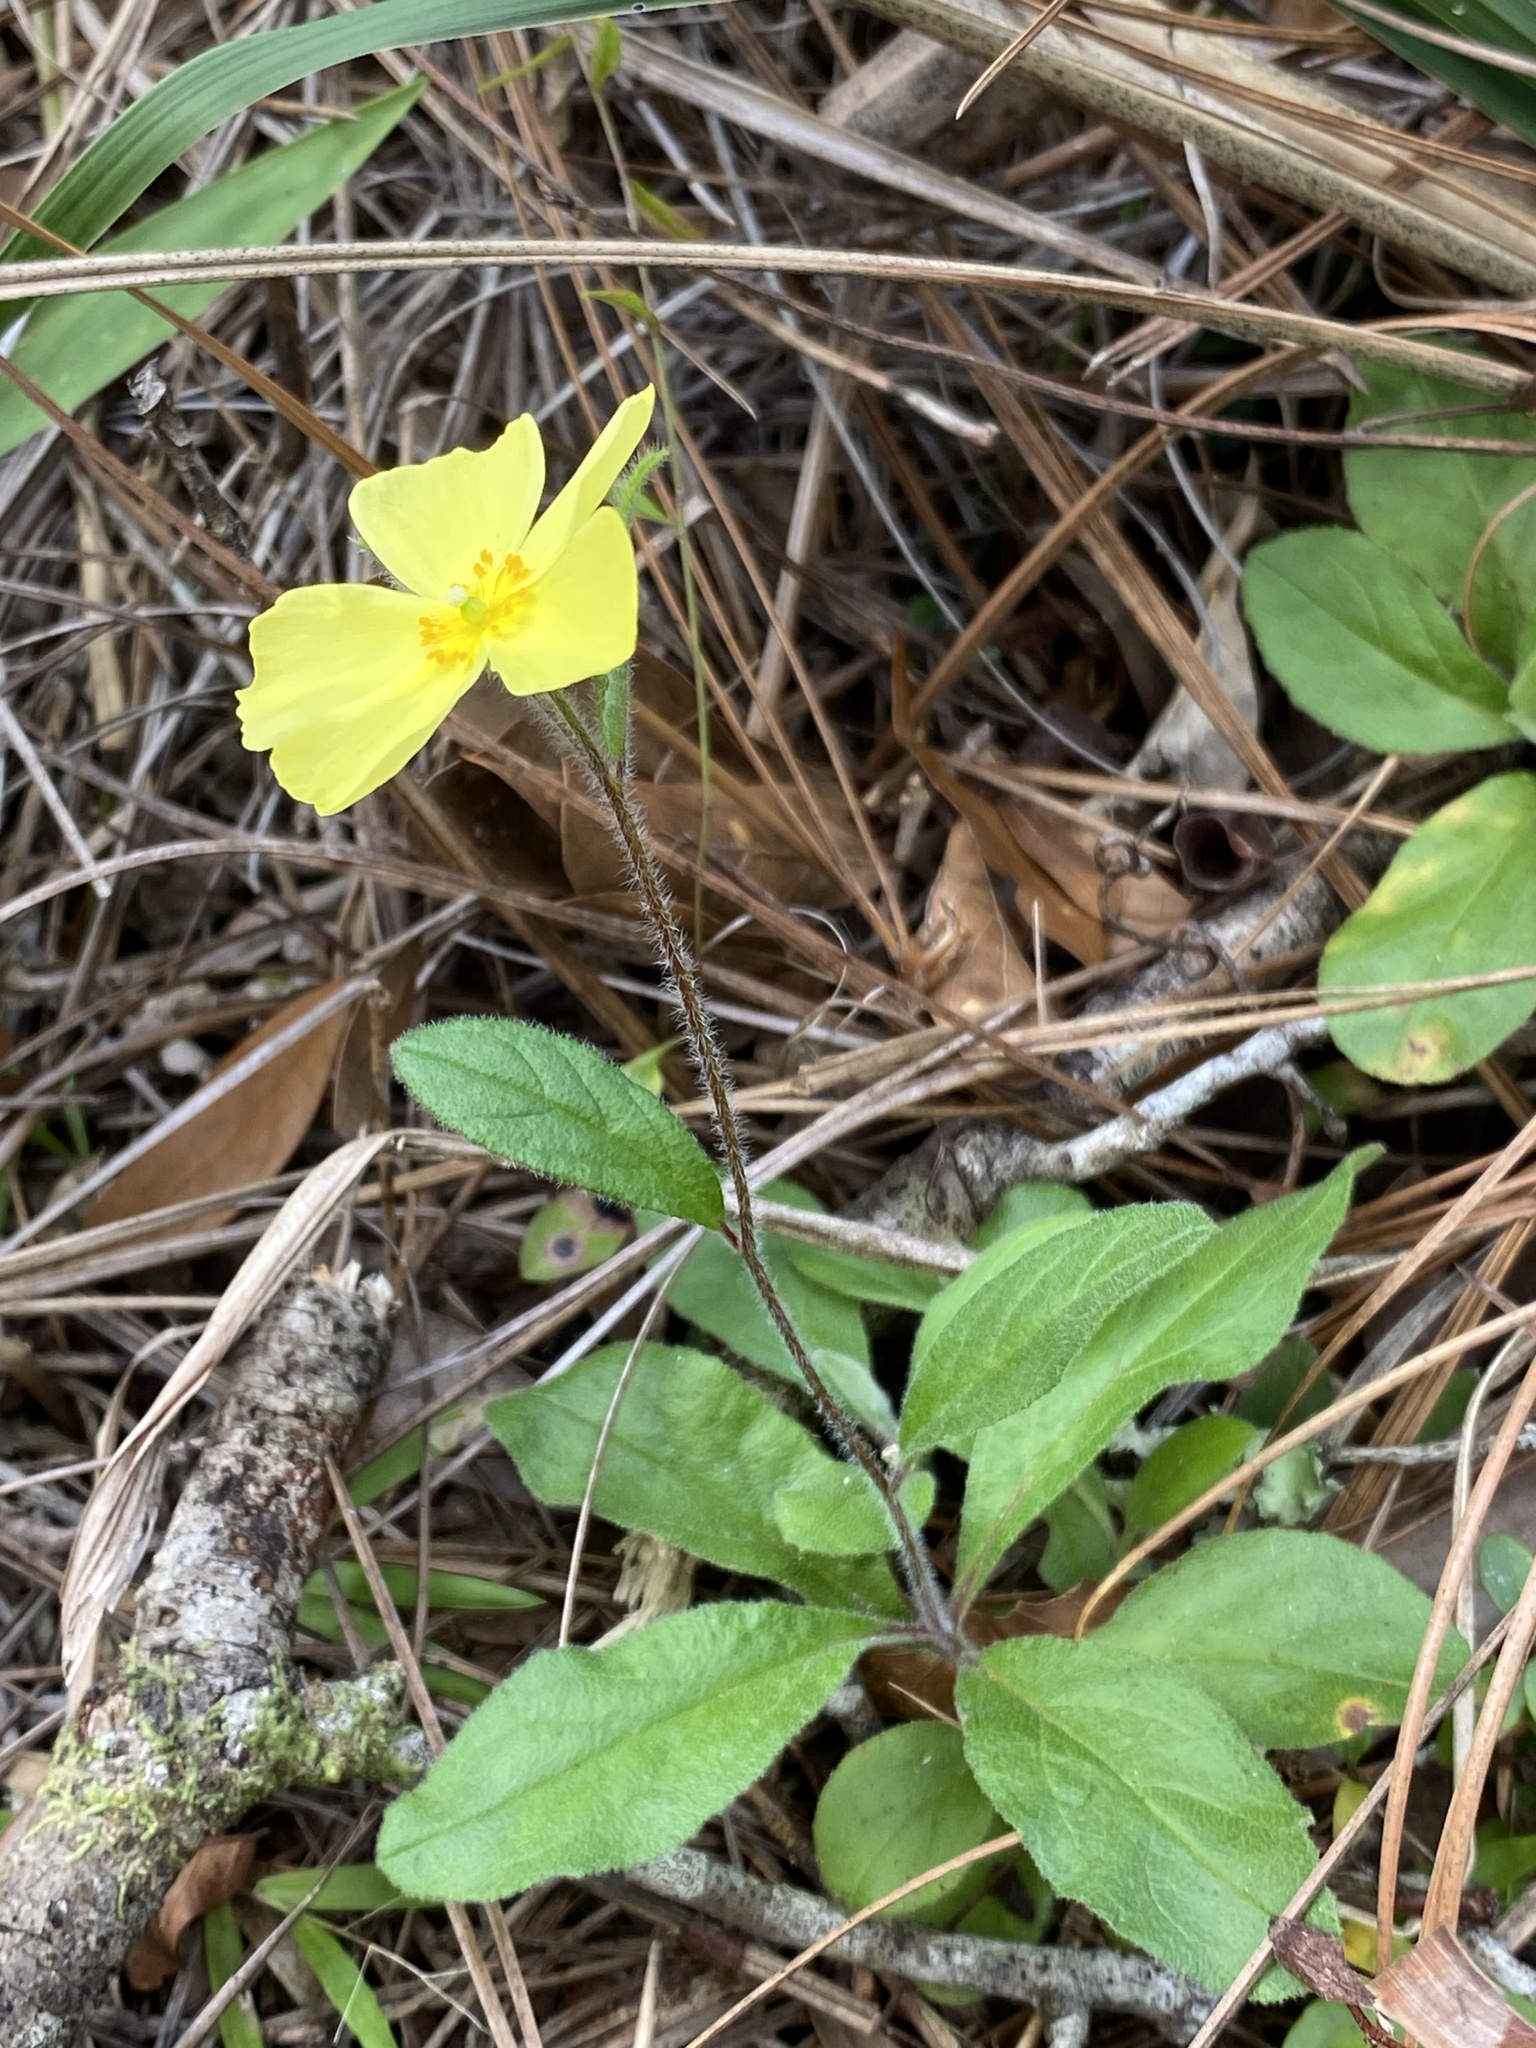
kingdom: Plantae
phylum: Tracheophyta
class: Magnoliopsida
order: Malvales
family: Cistaceae
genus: Crocanthemum
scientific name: Crocanthemum carolinianum
